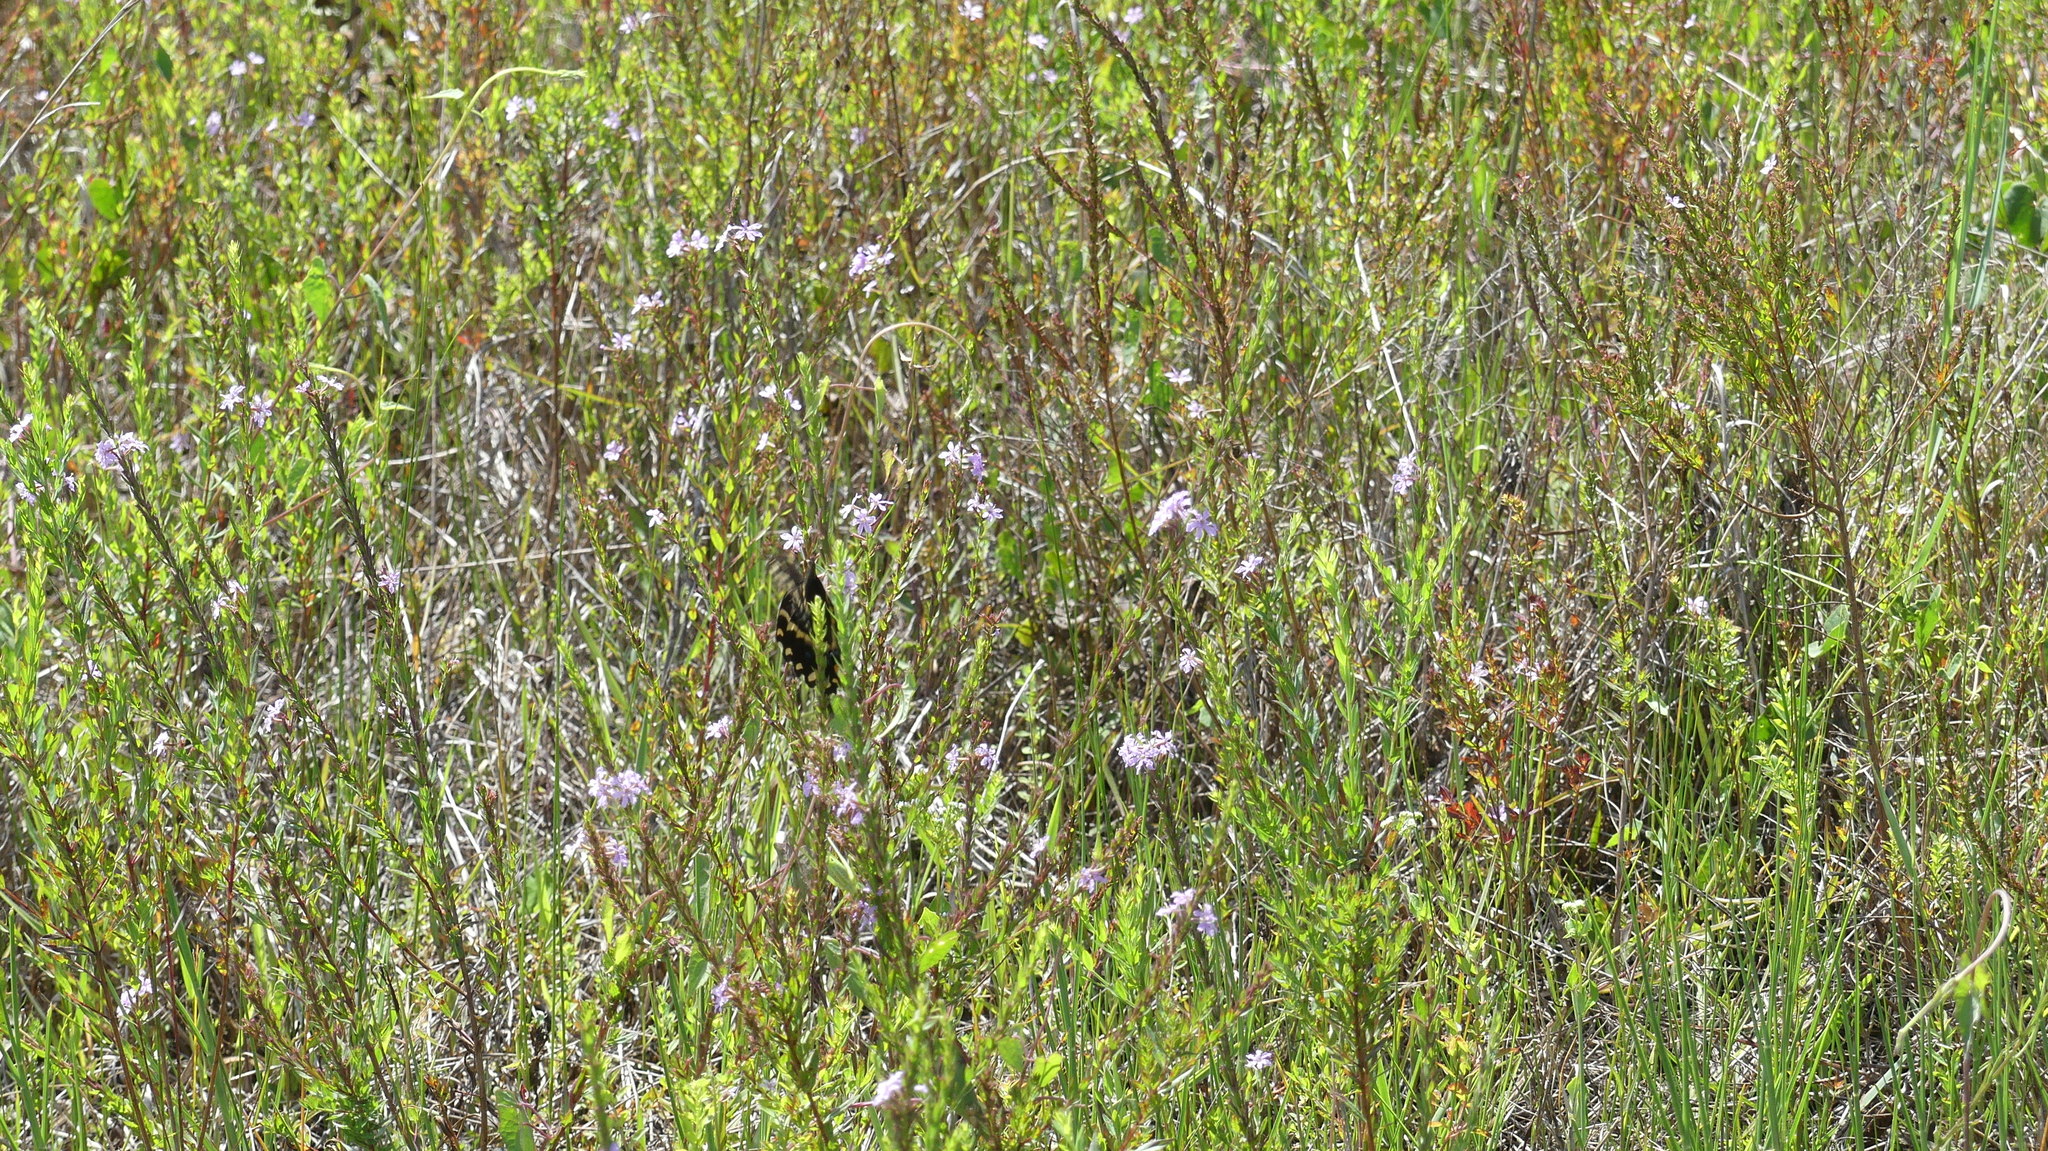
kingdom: Animalia
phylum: Arthropoda
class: Insecta
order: Lepidoptera
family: Papilionidae
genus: Papilio
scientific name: Papilio palamedes
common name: Palamedes swallowtail
